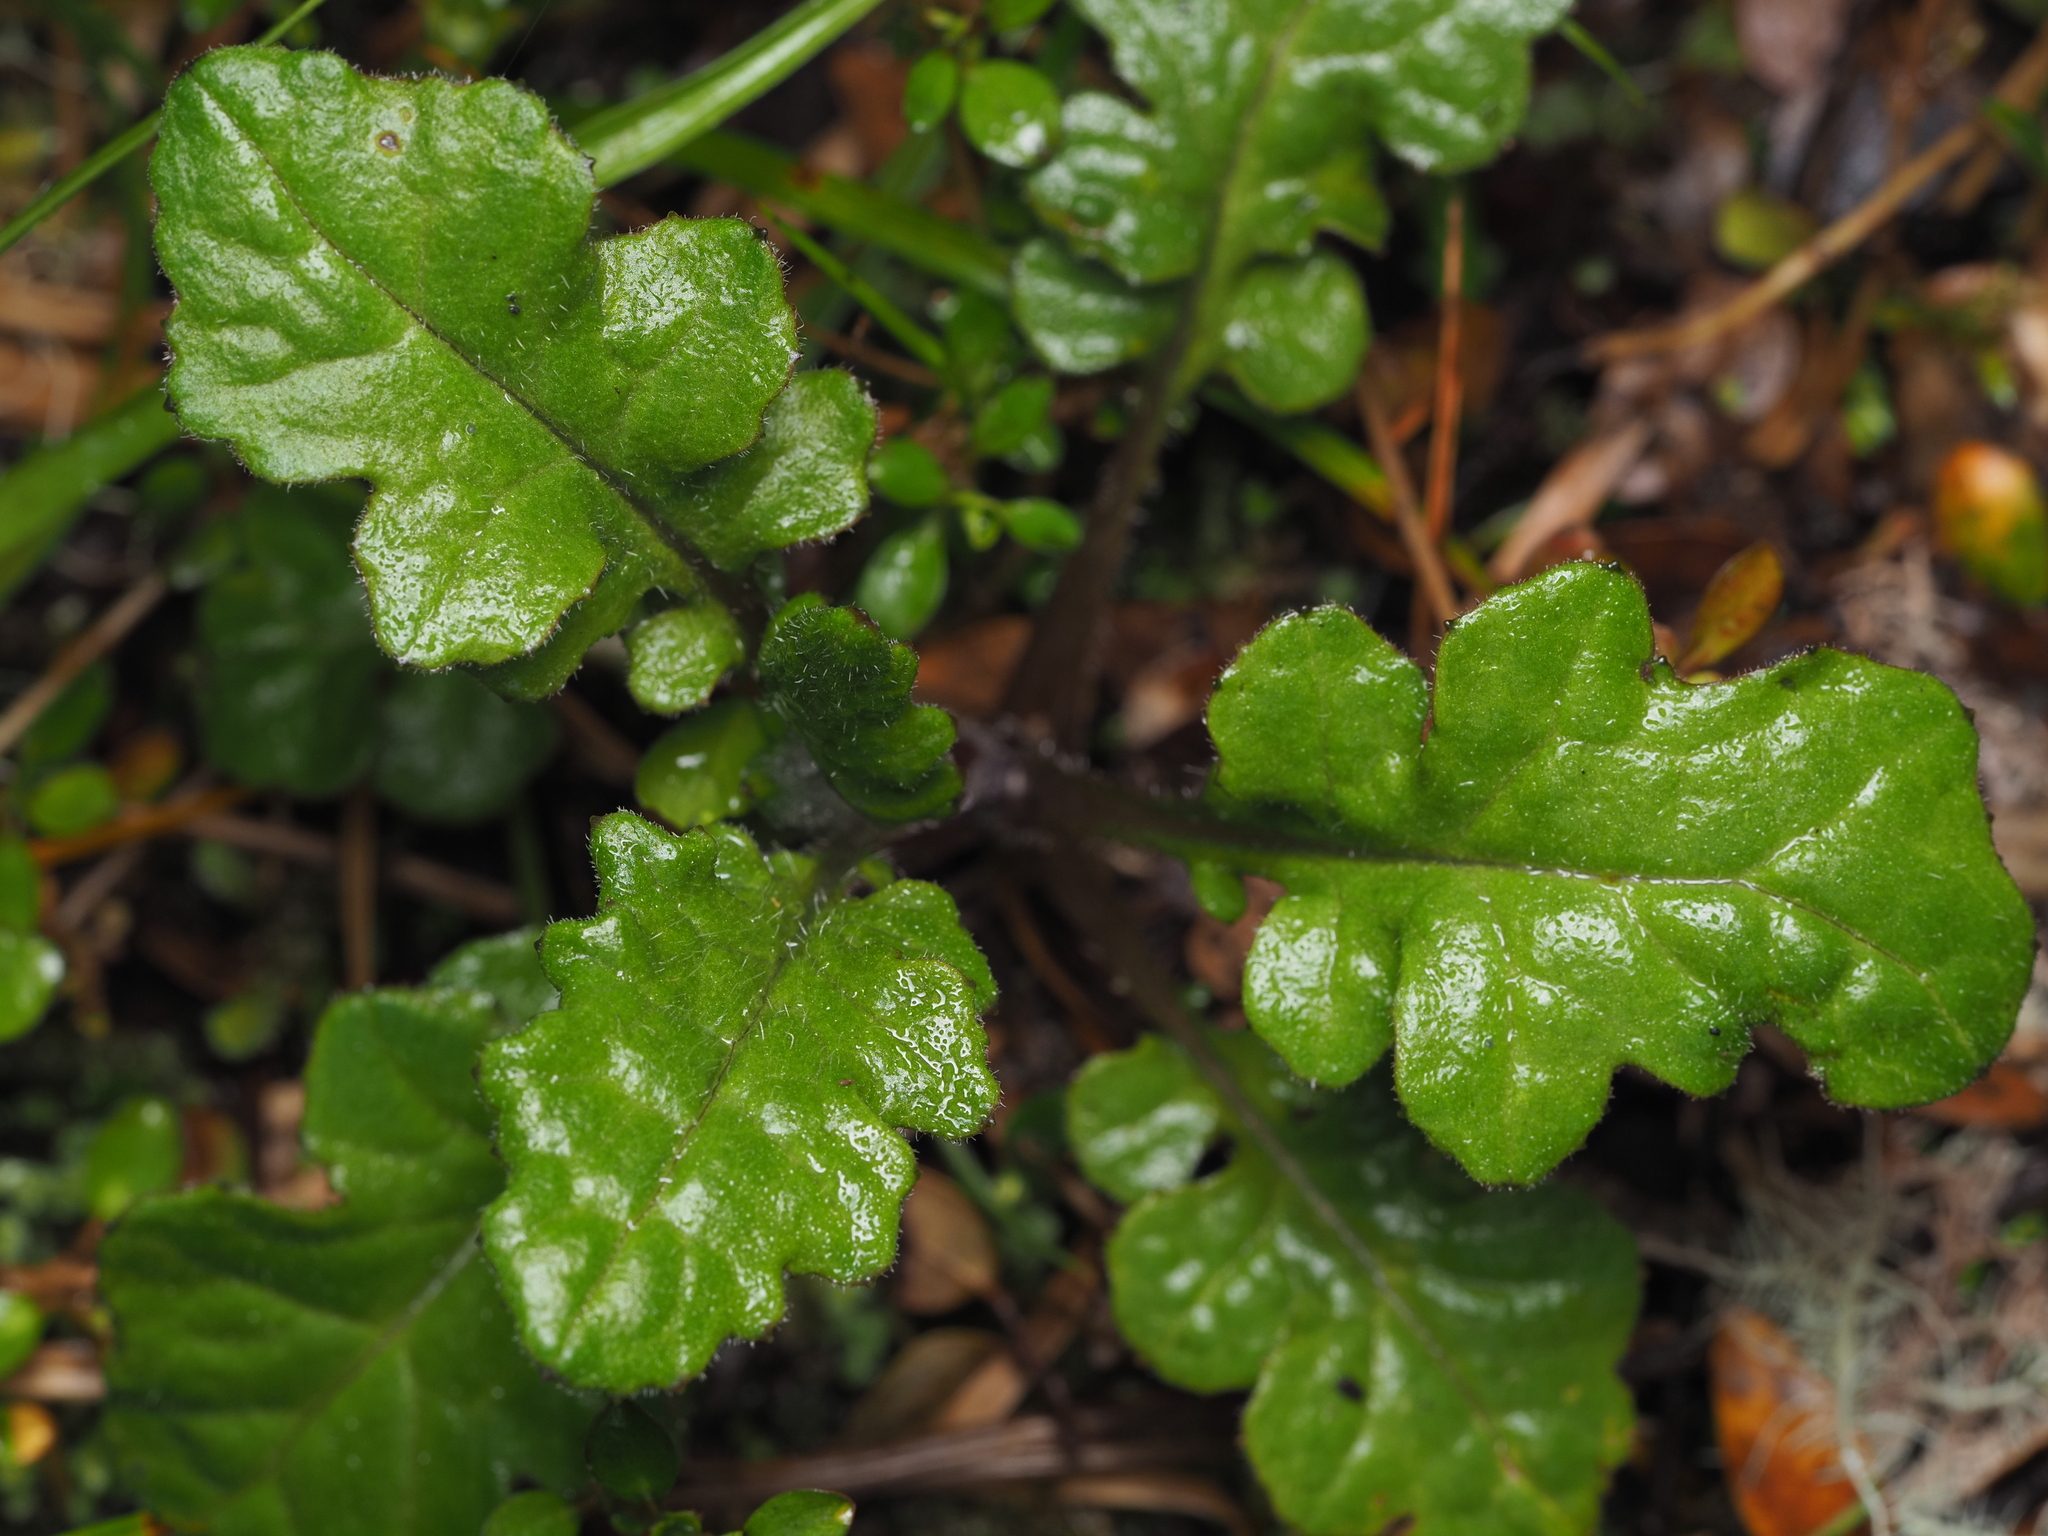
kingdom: Plantae
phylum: Tracheophyta
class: Magnoliopsida
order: Asterales
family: Asteraceae
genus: Senecio
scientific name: Senecio wairauensis
